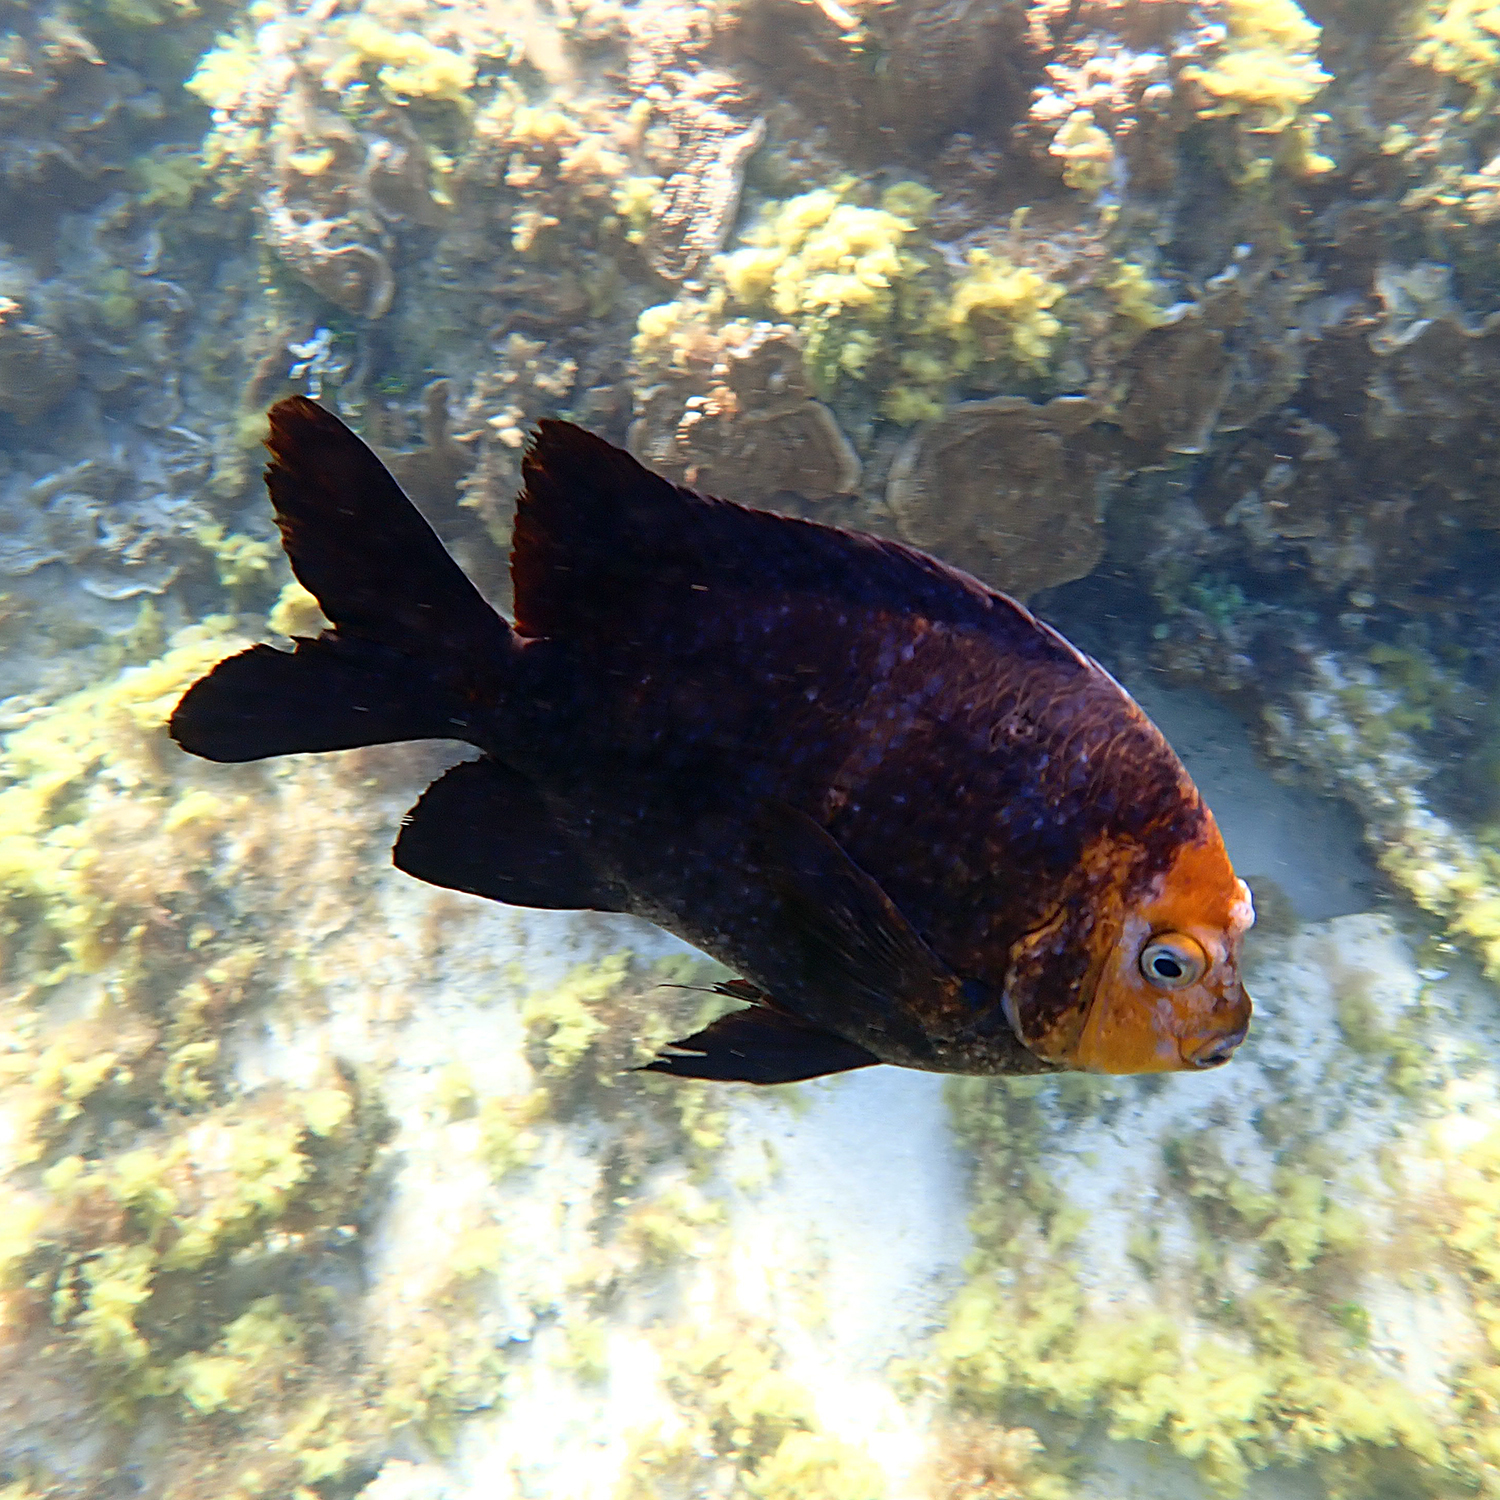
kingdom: Animalia
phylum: Chordata
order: Perciformes
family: Pomacentridae
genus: Parma
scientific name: Parma polylepis
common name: Banded parma
